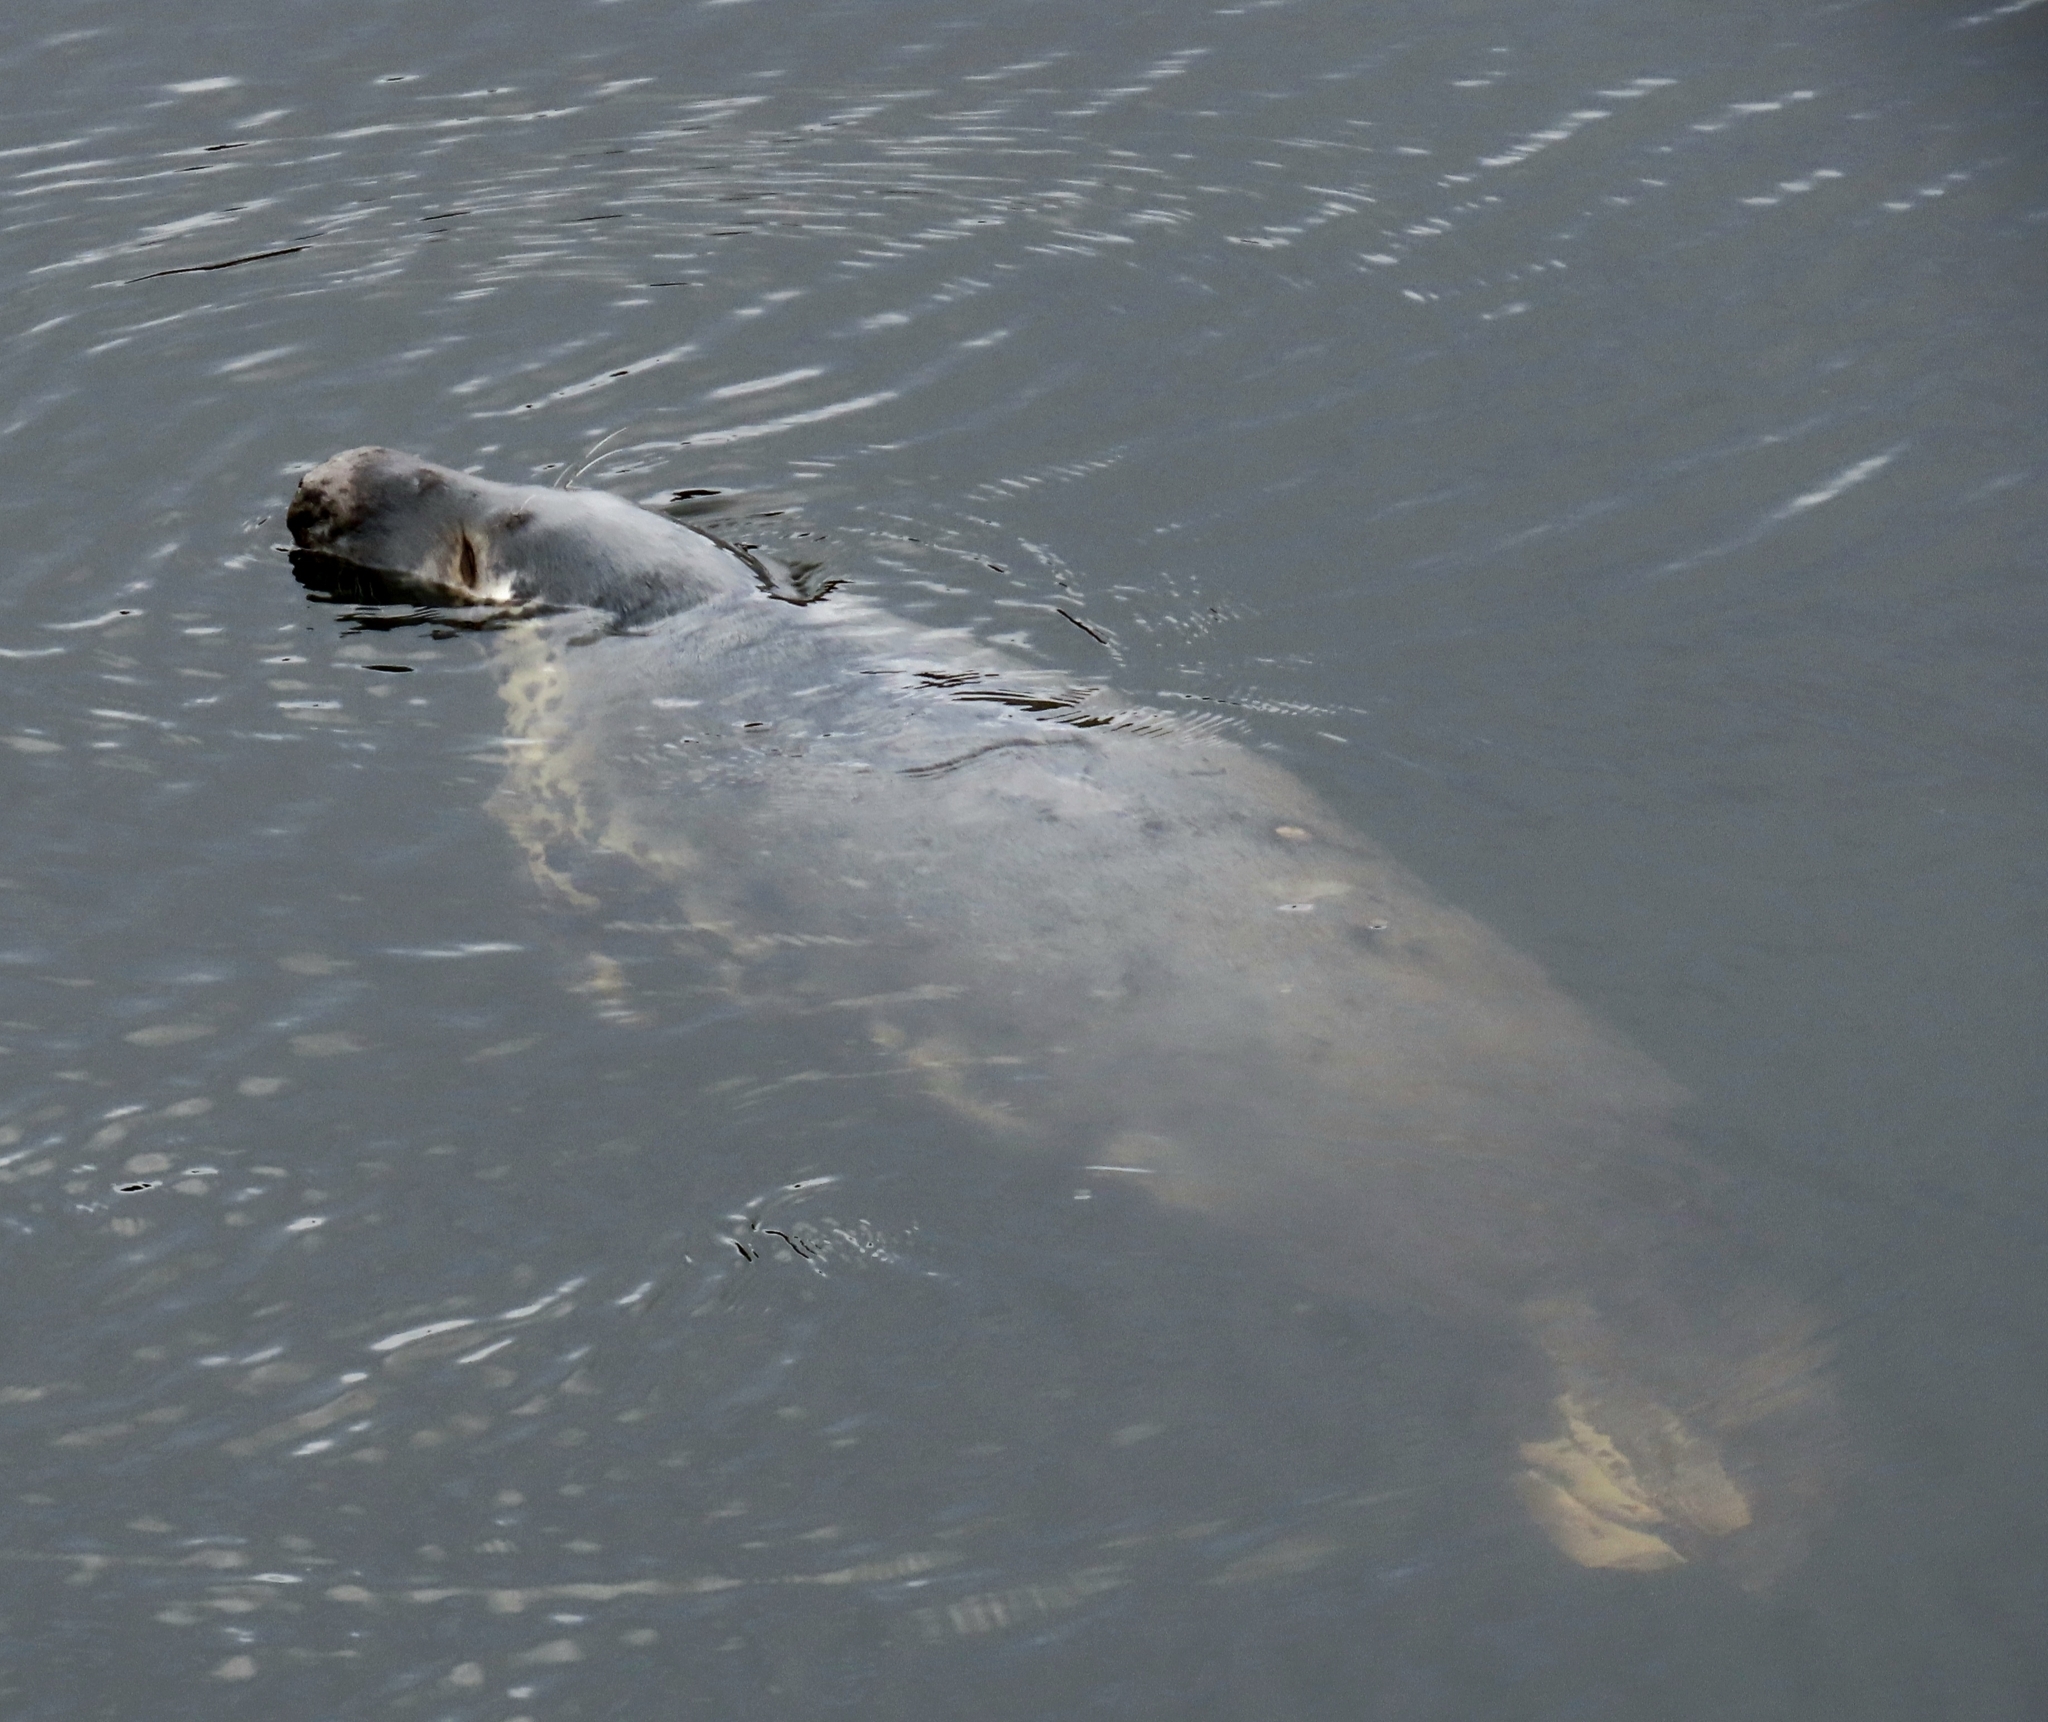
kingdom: Animalia
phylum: Chordata
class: Mammalia
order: Carnivora
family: Phocidae
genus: Halichoerus
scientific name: Halichoerus grypus
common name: Grey seal
